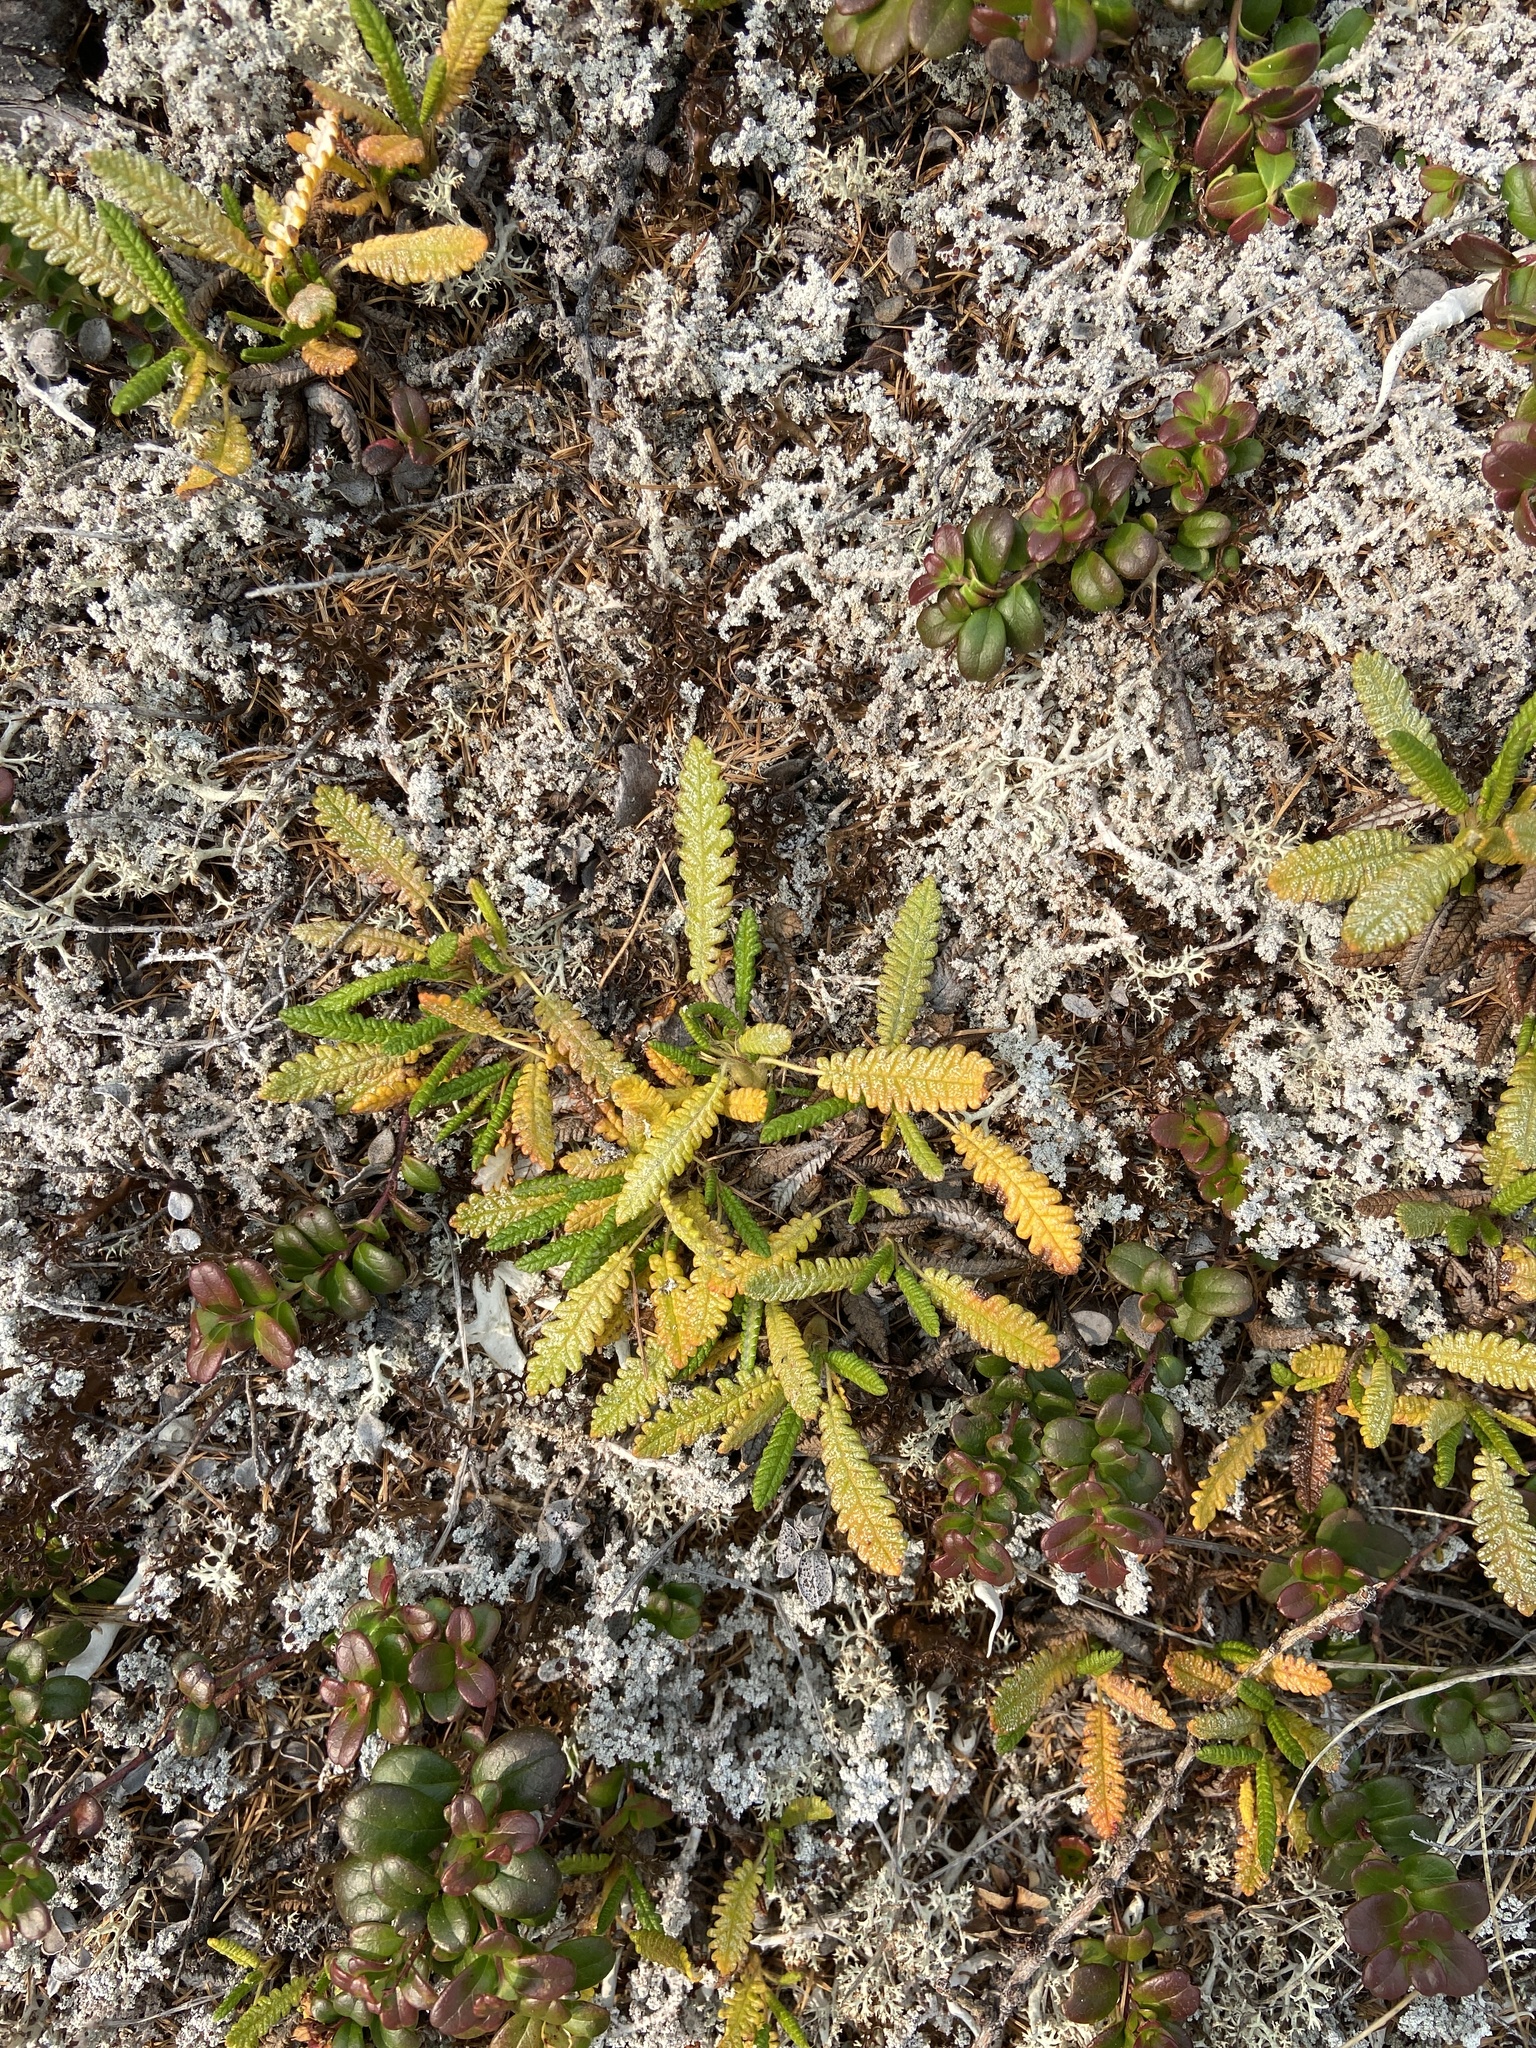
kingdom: Plantae
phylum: Tracheophyta
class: Magnoliopsida
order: Rosales
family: Rosaceae
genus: Dryas
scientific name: Dryas octopetala
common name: Eight-petal mountain-avens
